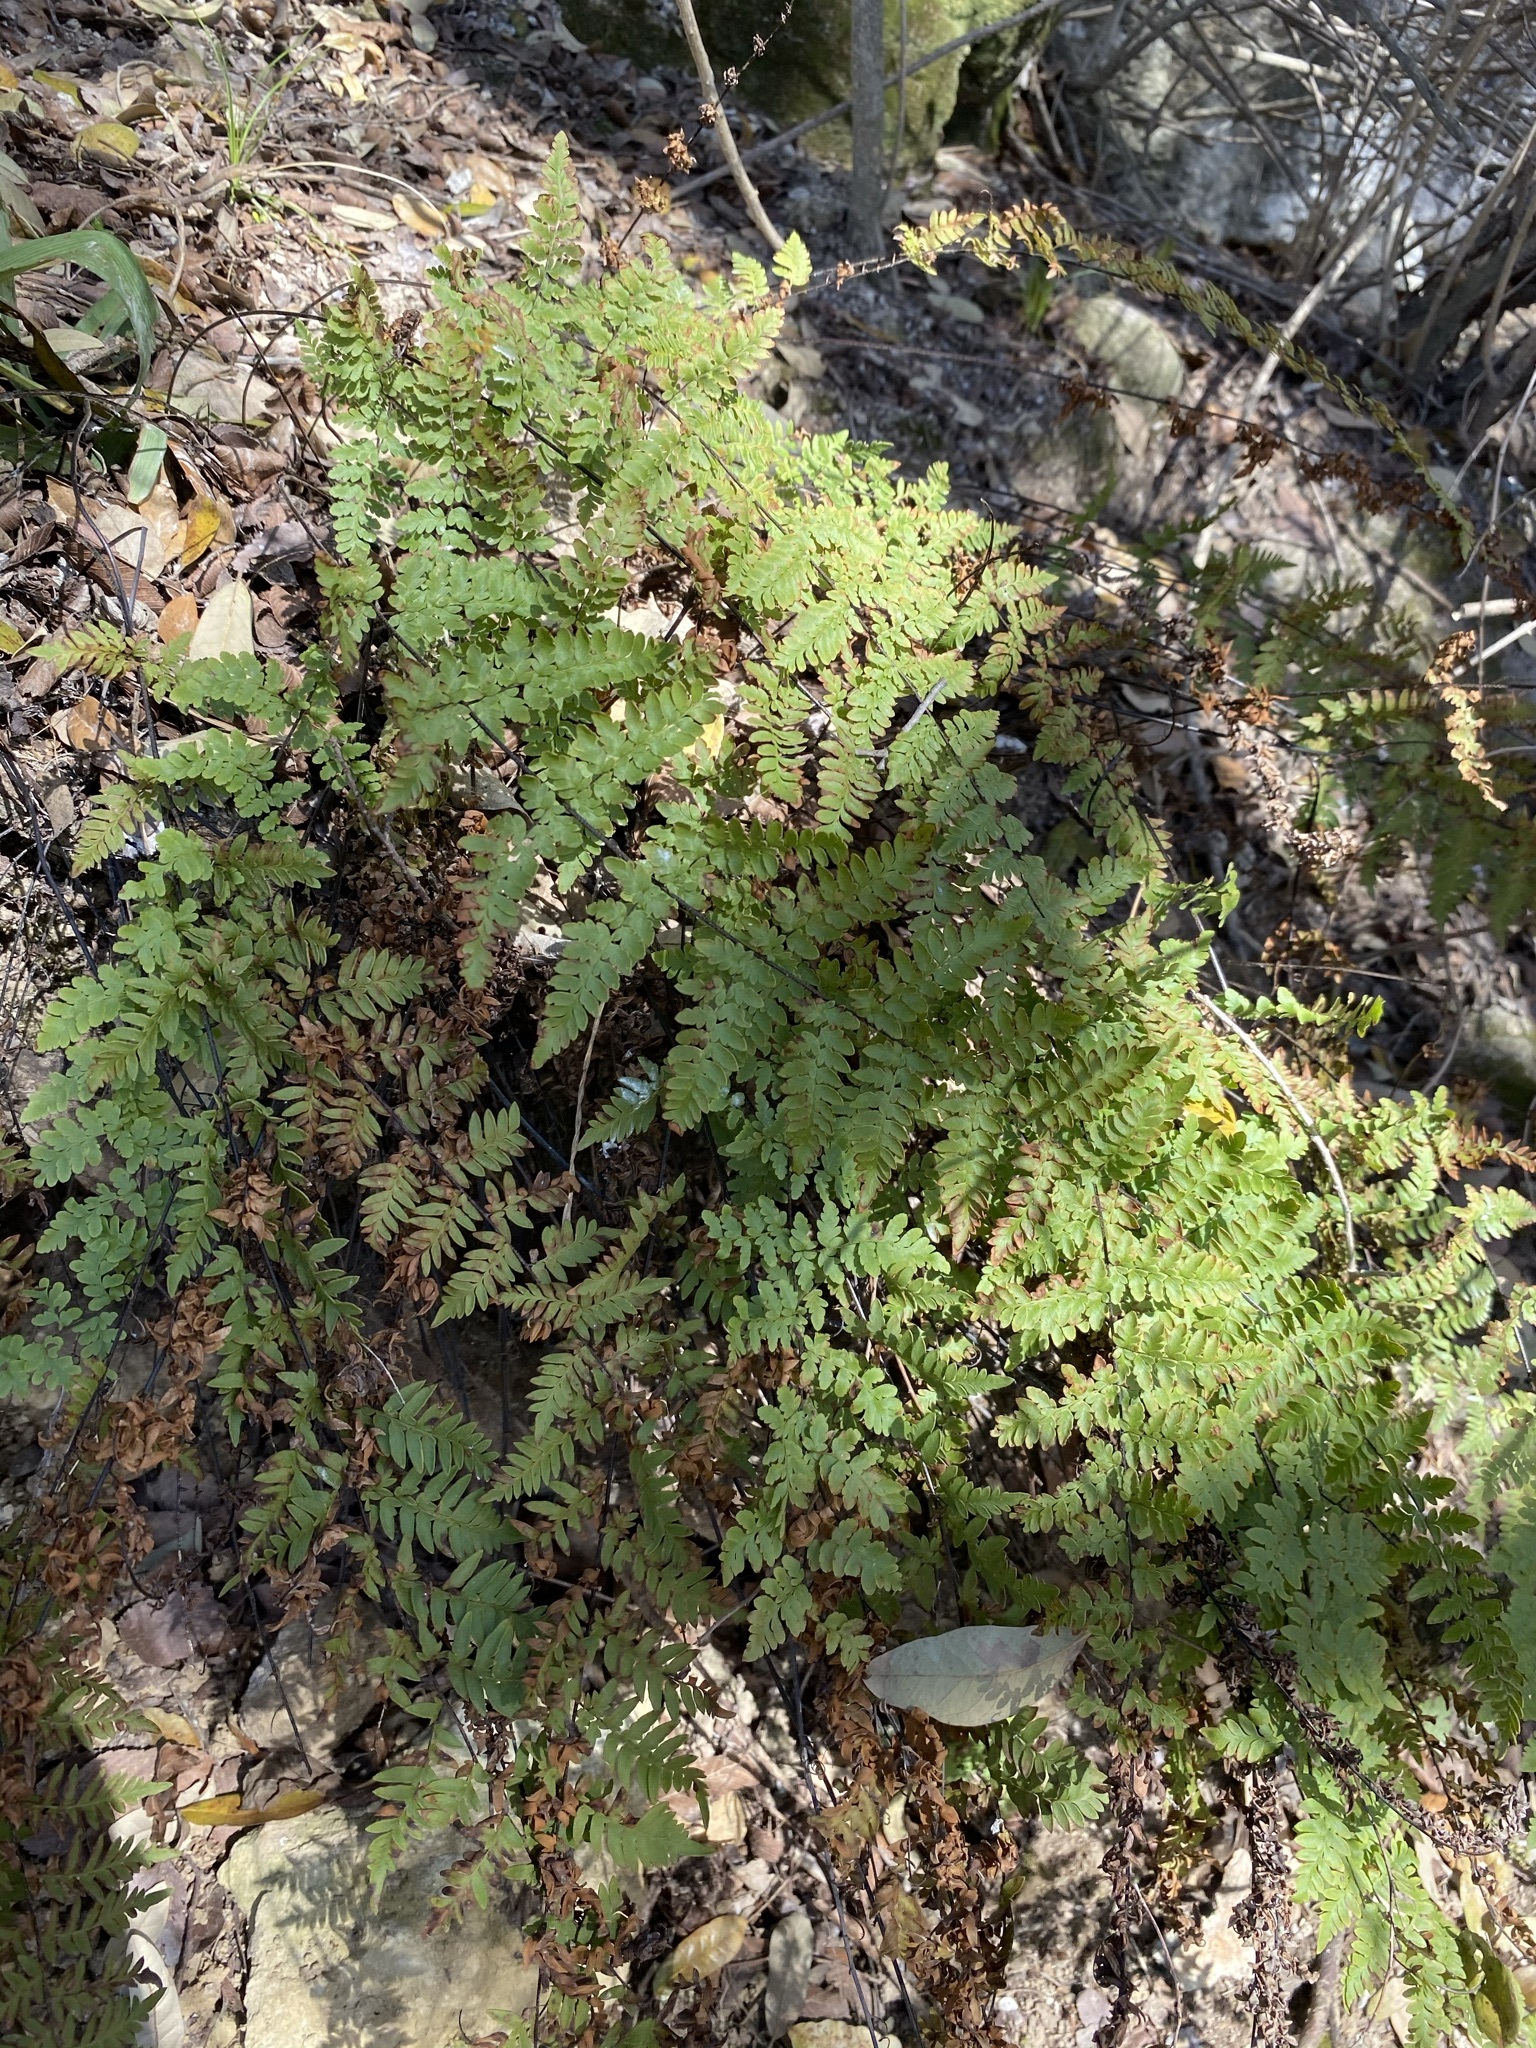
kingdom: Plantae
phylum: Tracheophyta
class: Polypodiopsida
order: Polypodiales
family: Pteridaceae
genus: Myriopteris
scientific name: Myriopteris alabamensis
